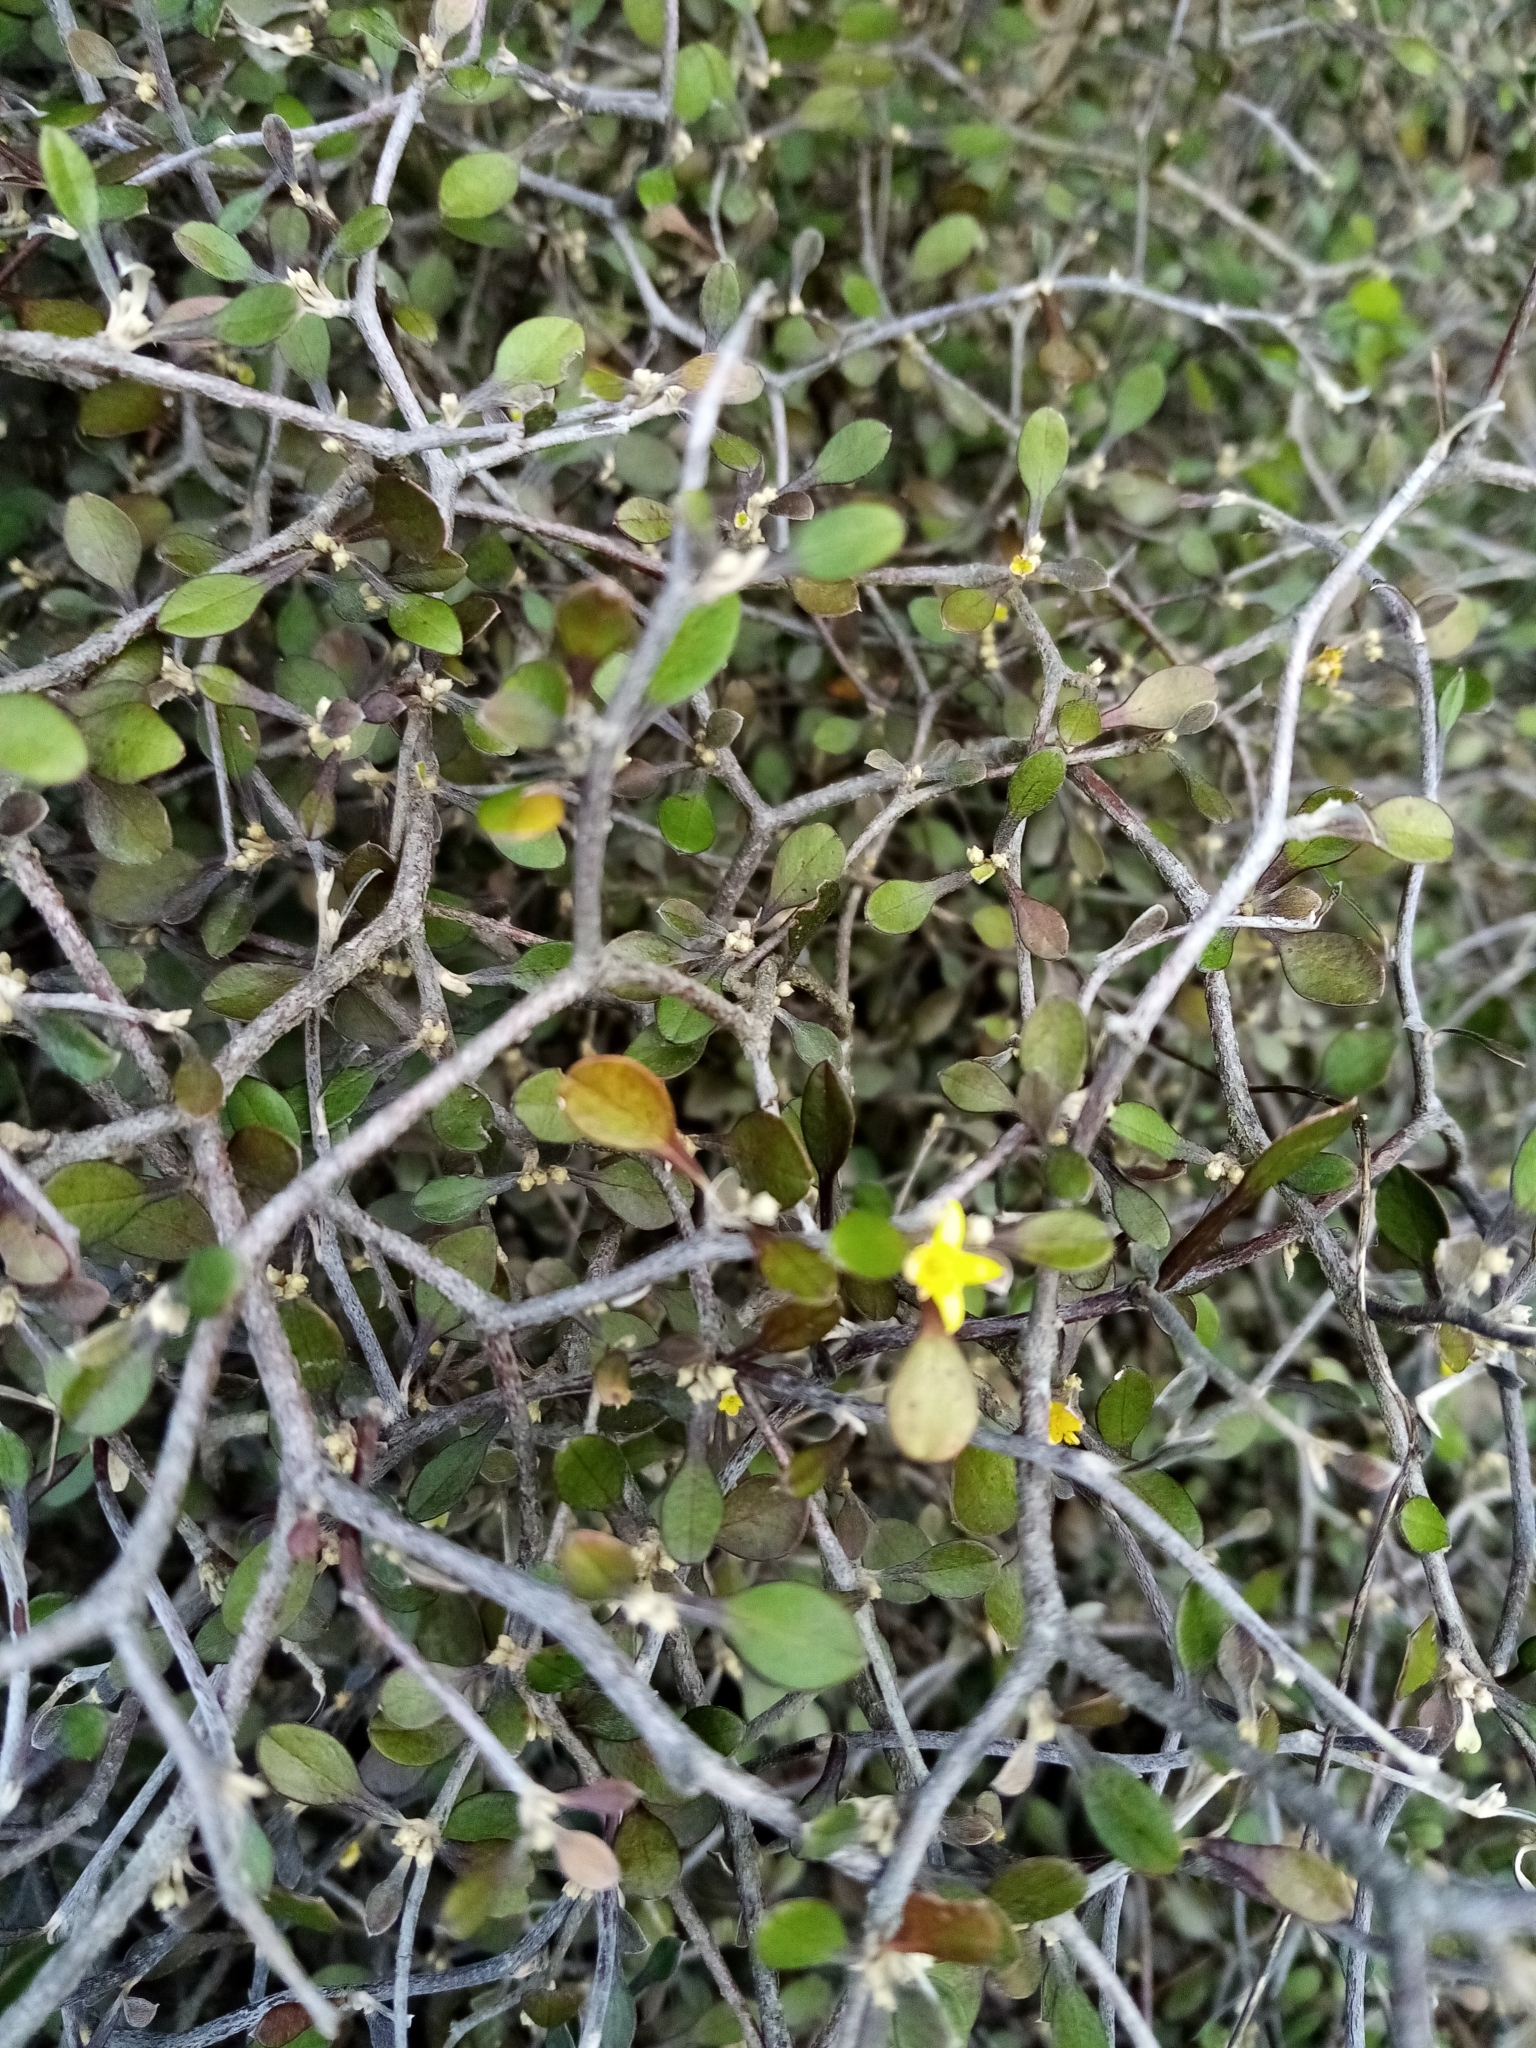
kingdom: Plantae
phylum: Tracheophyta
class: Magnoliopsida
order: Asterales
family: Argophyllaceae
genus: Corokia
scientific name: Corokia cotoneaster
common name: Wire nettingbush
